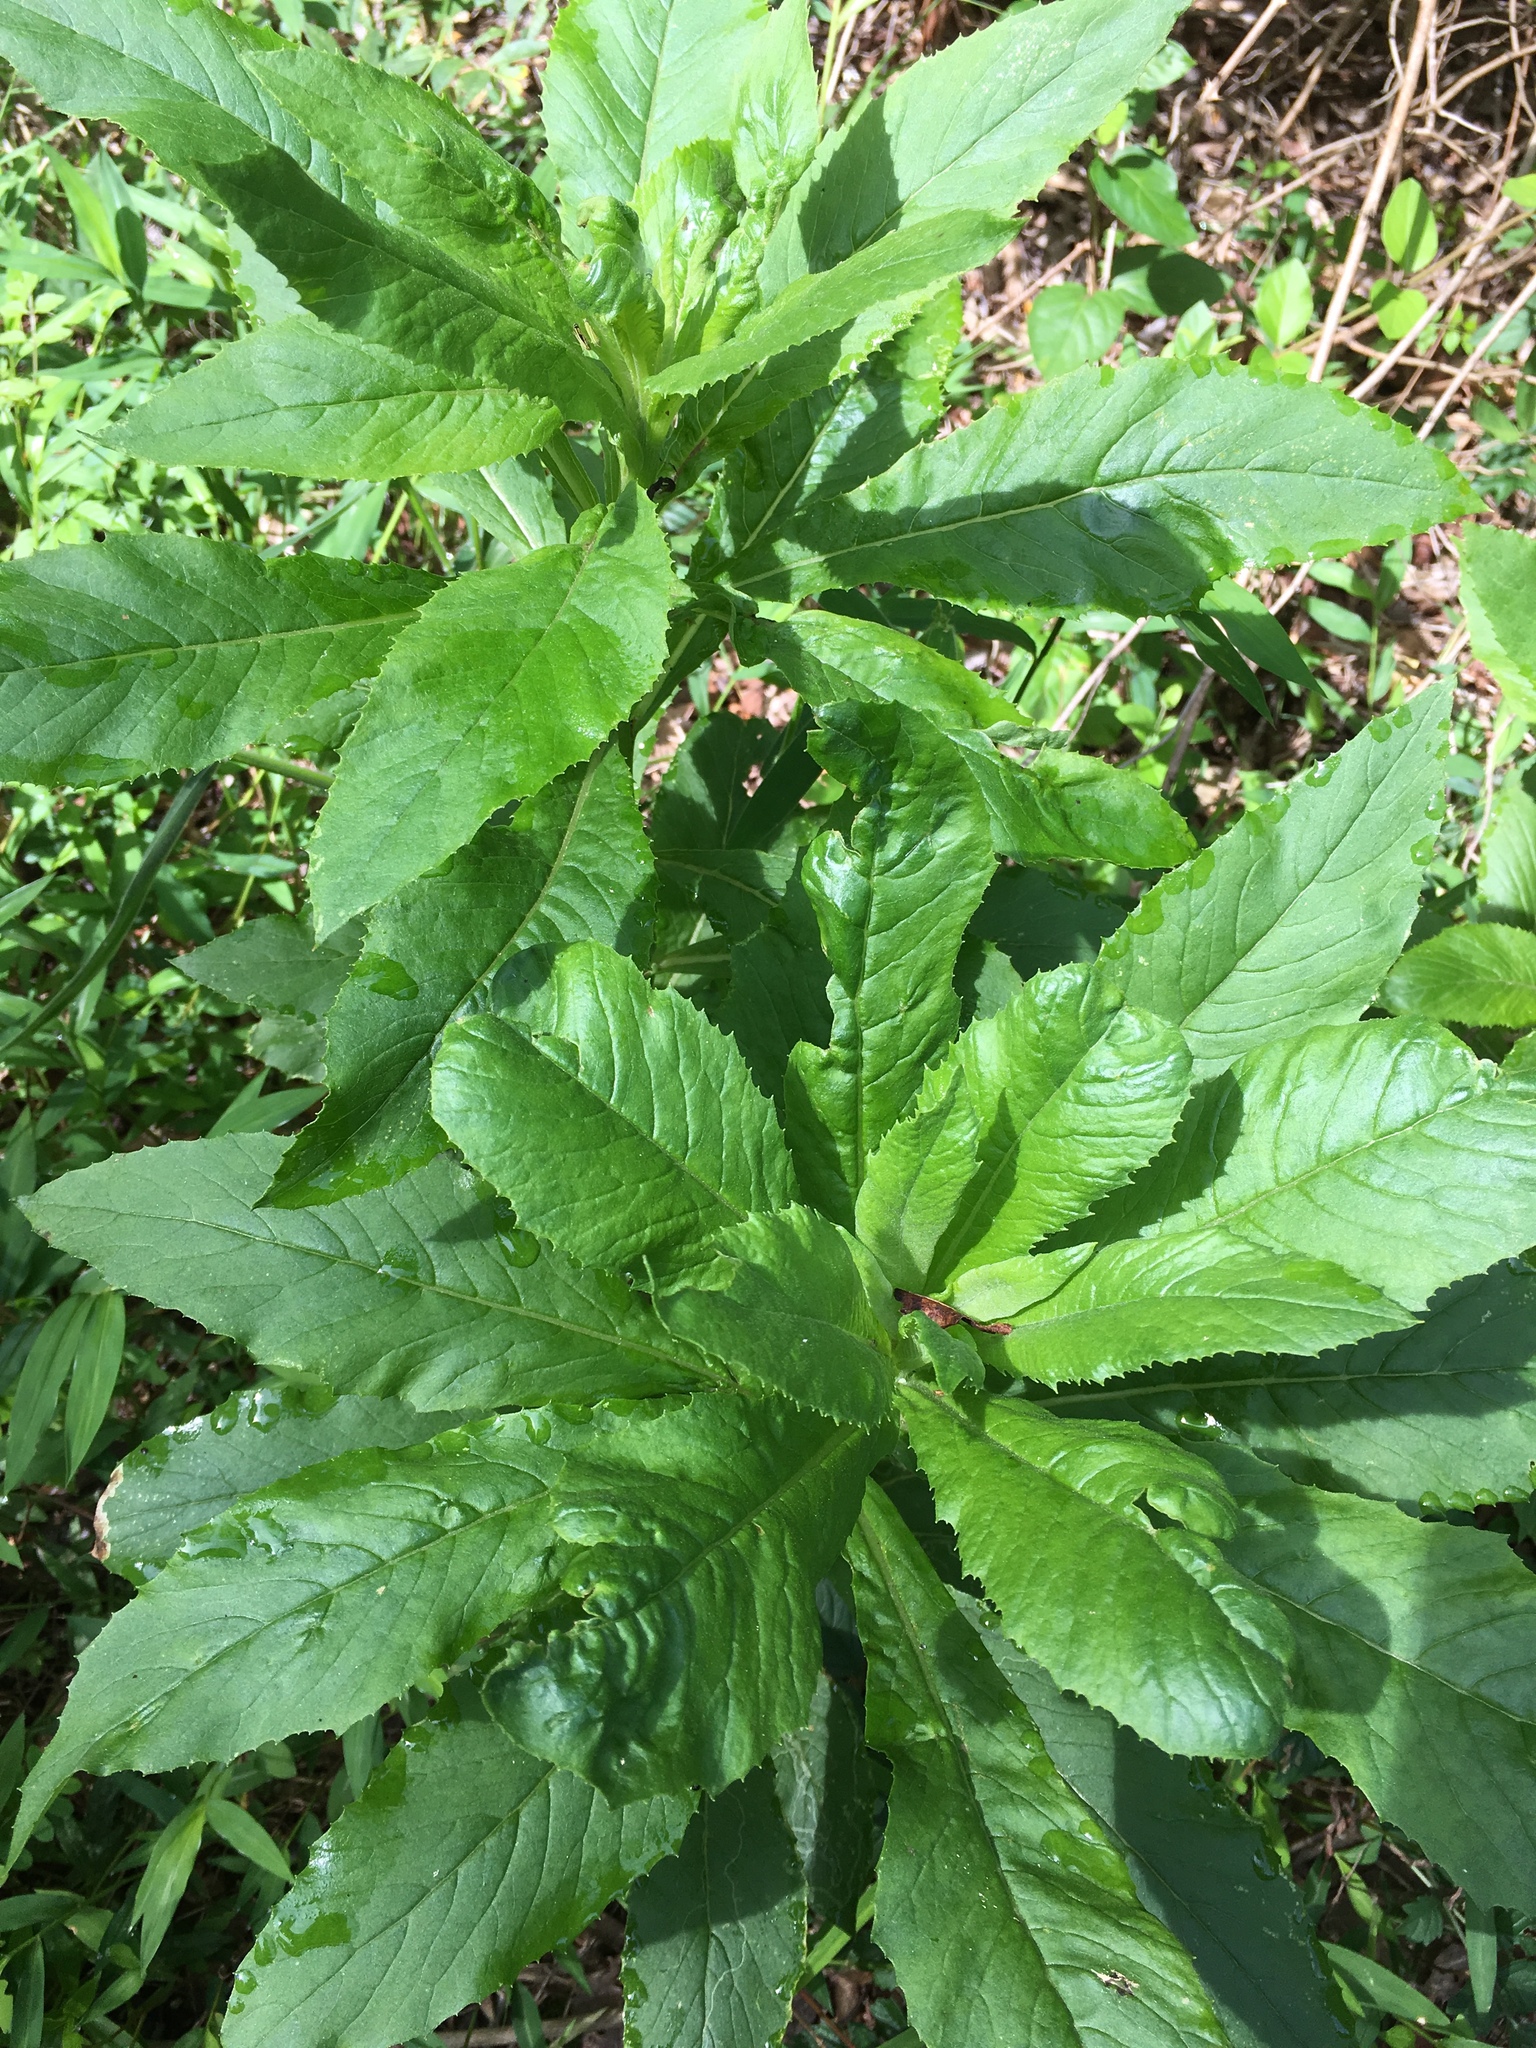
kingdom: Plantae
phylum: Tracheophyta
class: Magnoliopsida
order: Asterales
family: Asteraceae
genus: Erechtites
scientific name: Erechtites hieraciifolius
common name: American burnweed
